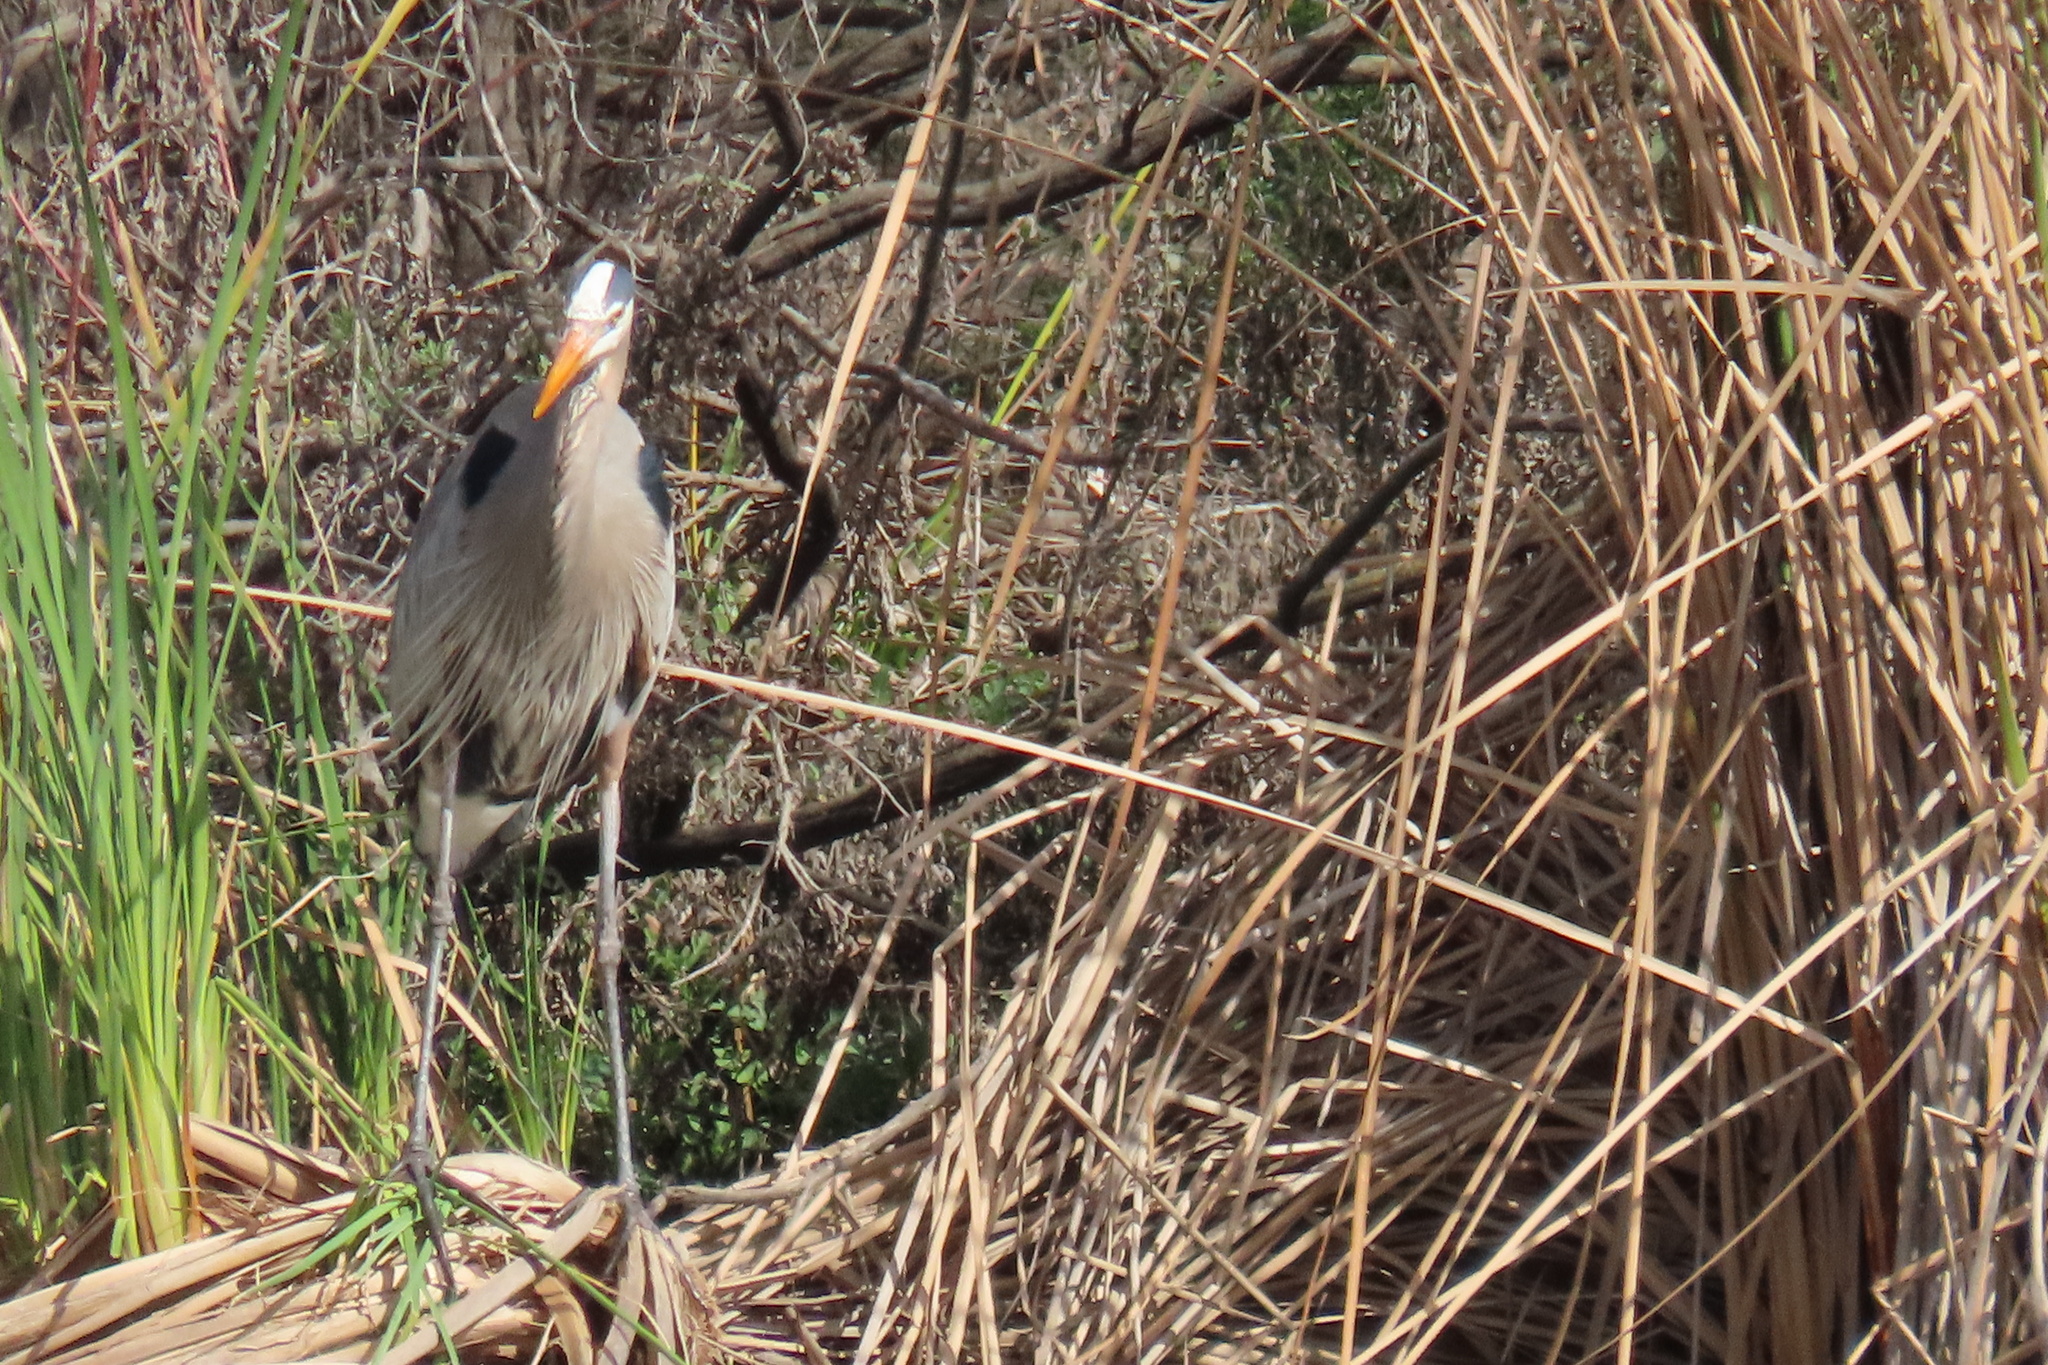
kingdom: Animalia
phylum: Chordata
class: Aves
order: Pelecaniformes
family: Ardeidae
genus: Ardea
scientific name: Ardea herodias
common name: Great blue heron
